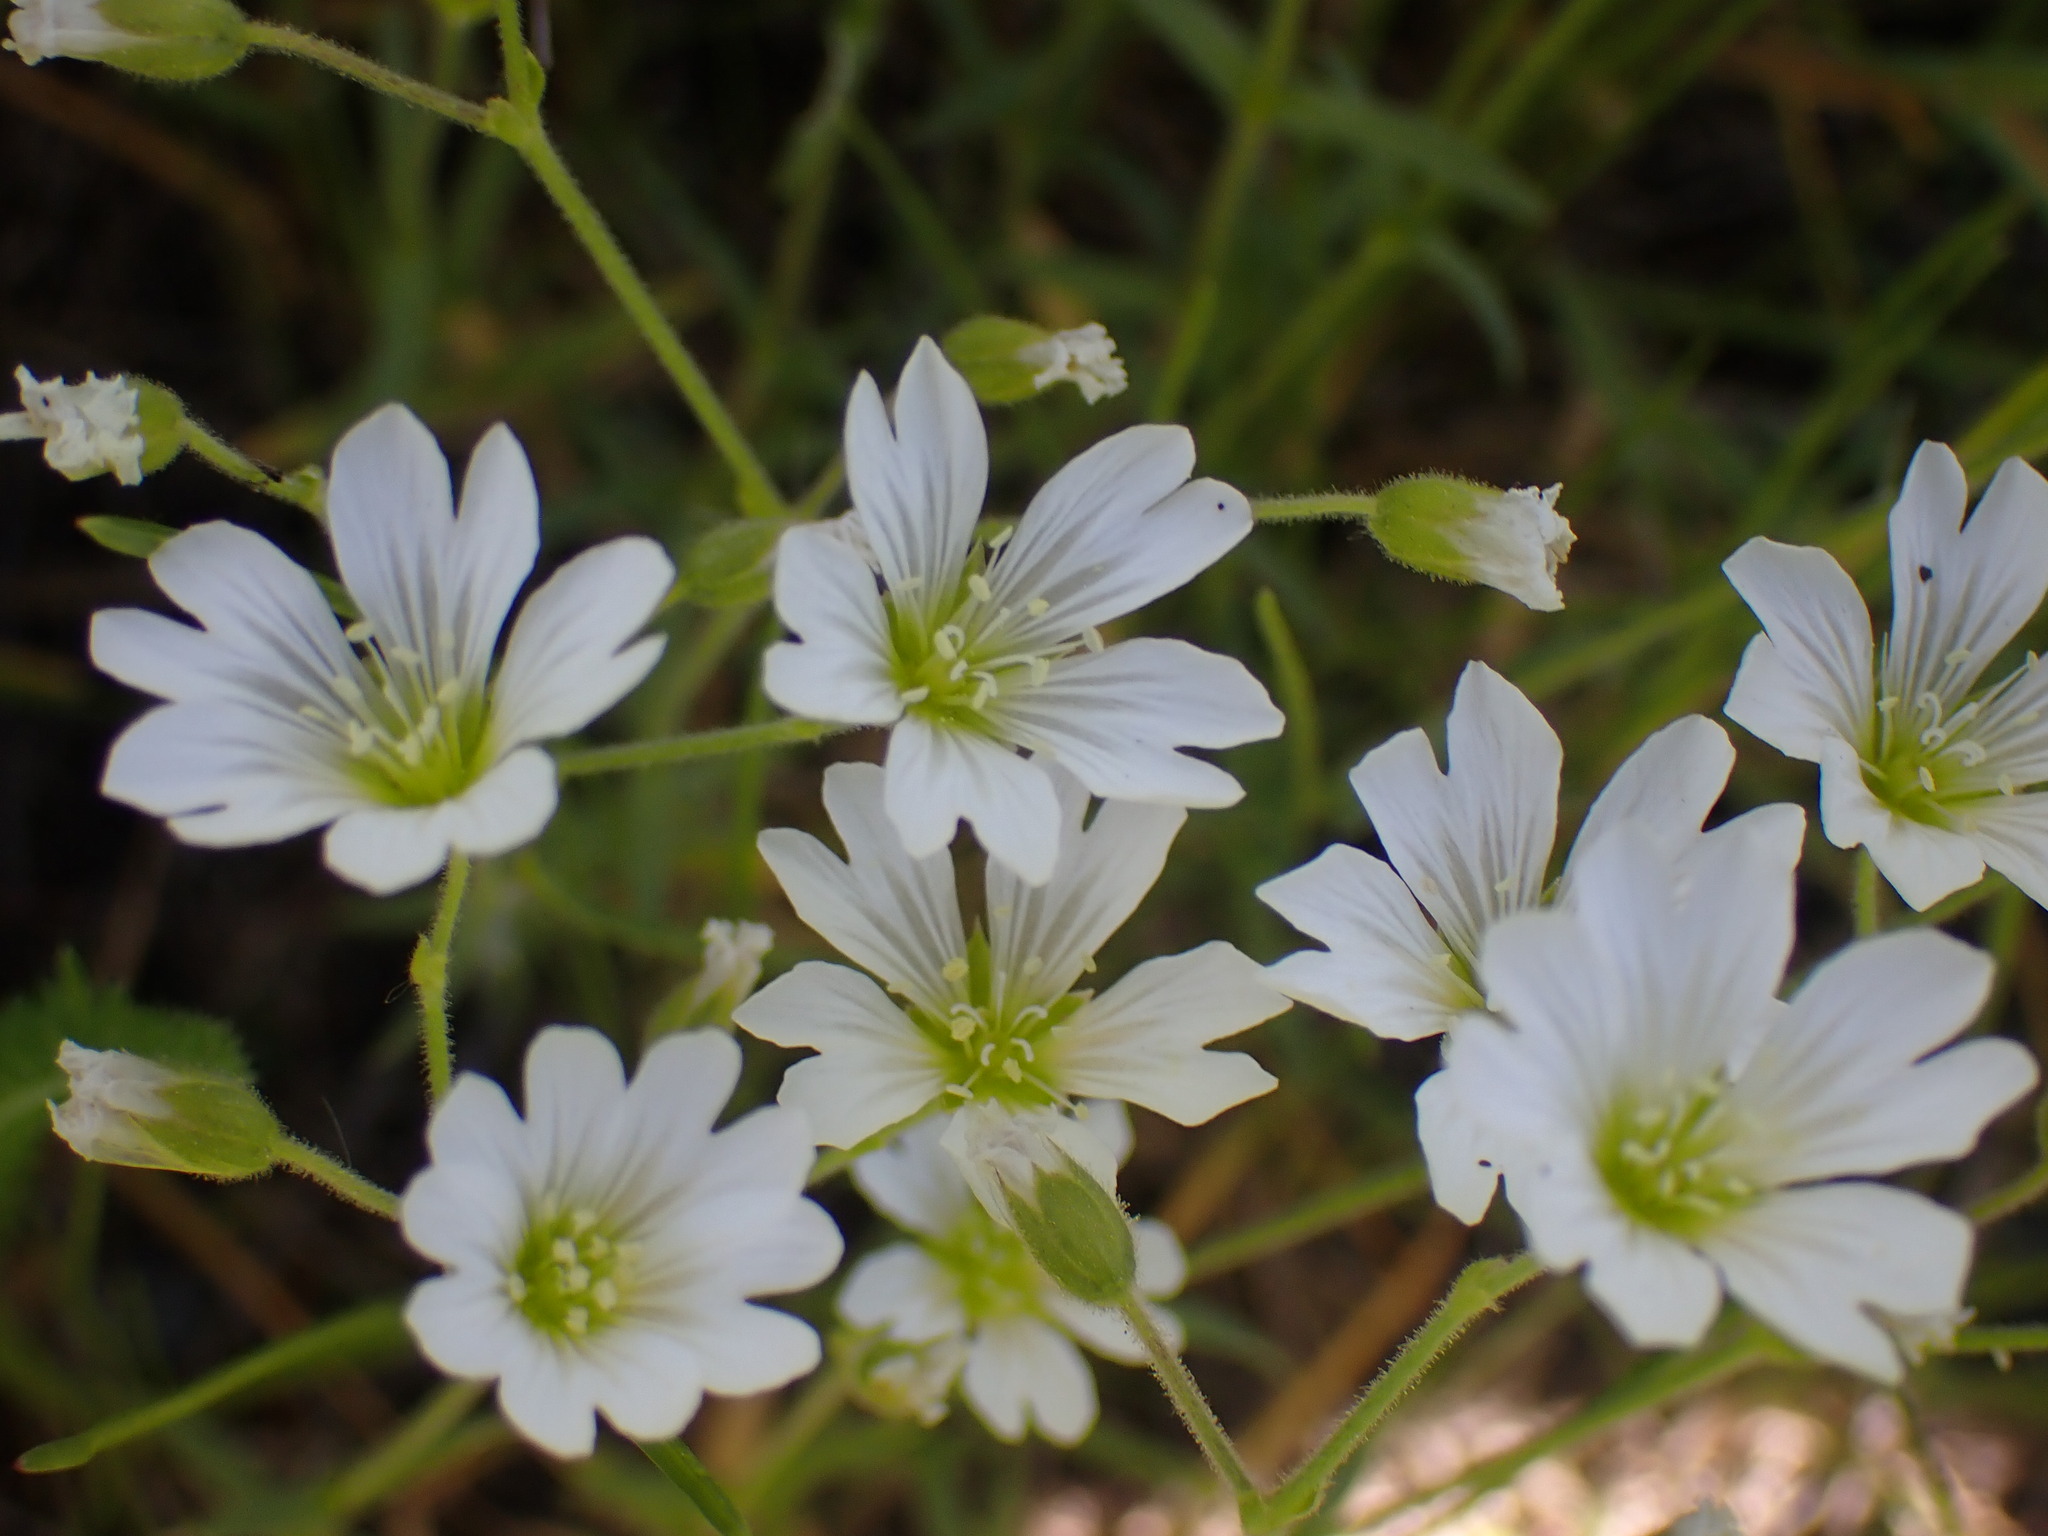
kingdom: Plantae
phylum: Tracheophyta
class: Magnoliopsida
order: Caryophyllales
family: Caryophyllaceae
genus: Cerastium
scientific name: Cerastium arvense
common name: Field mouse-ear
